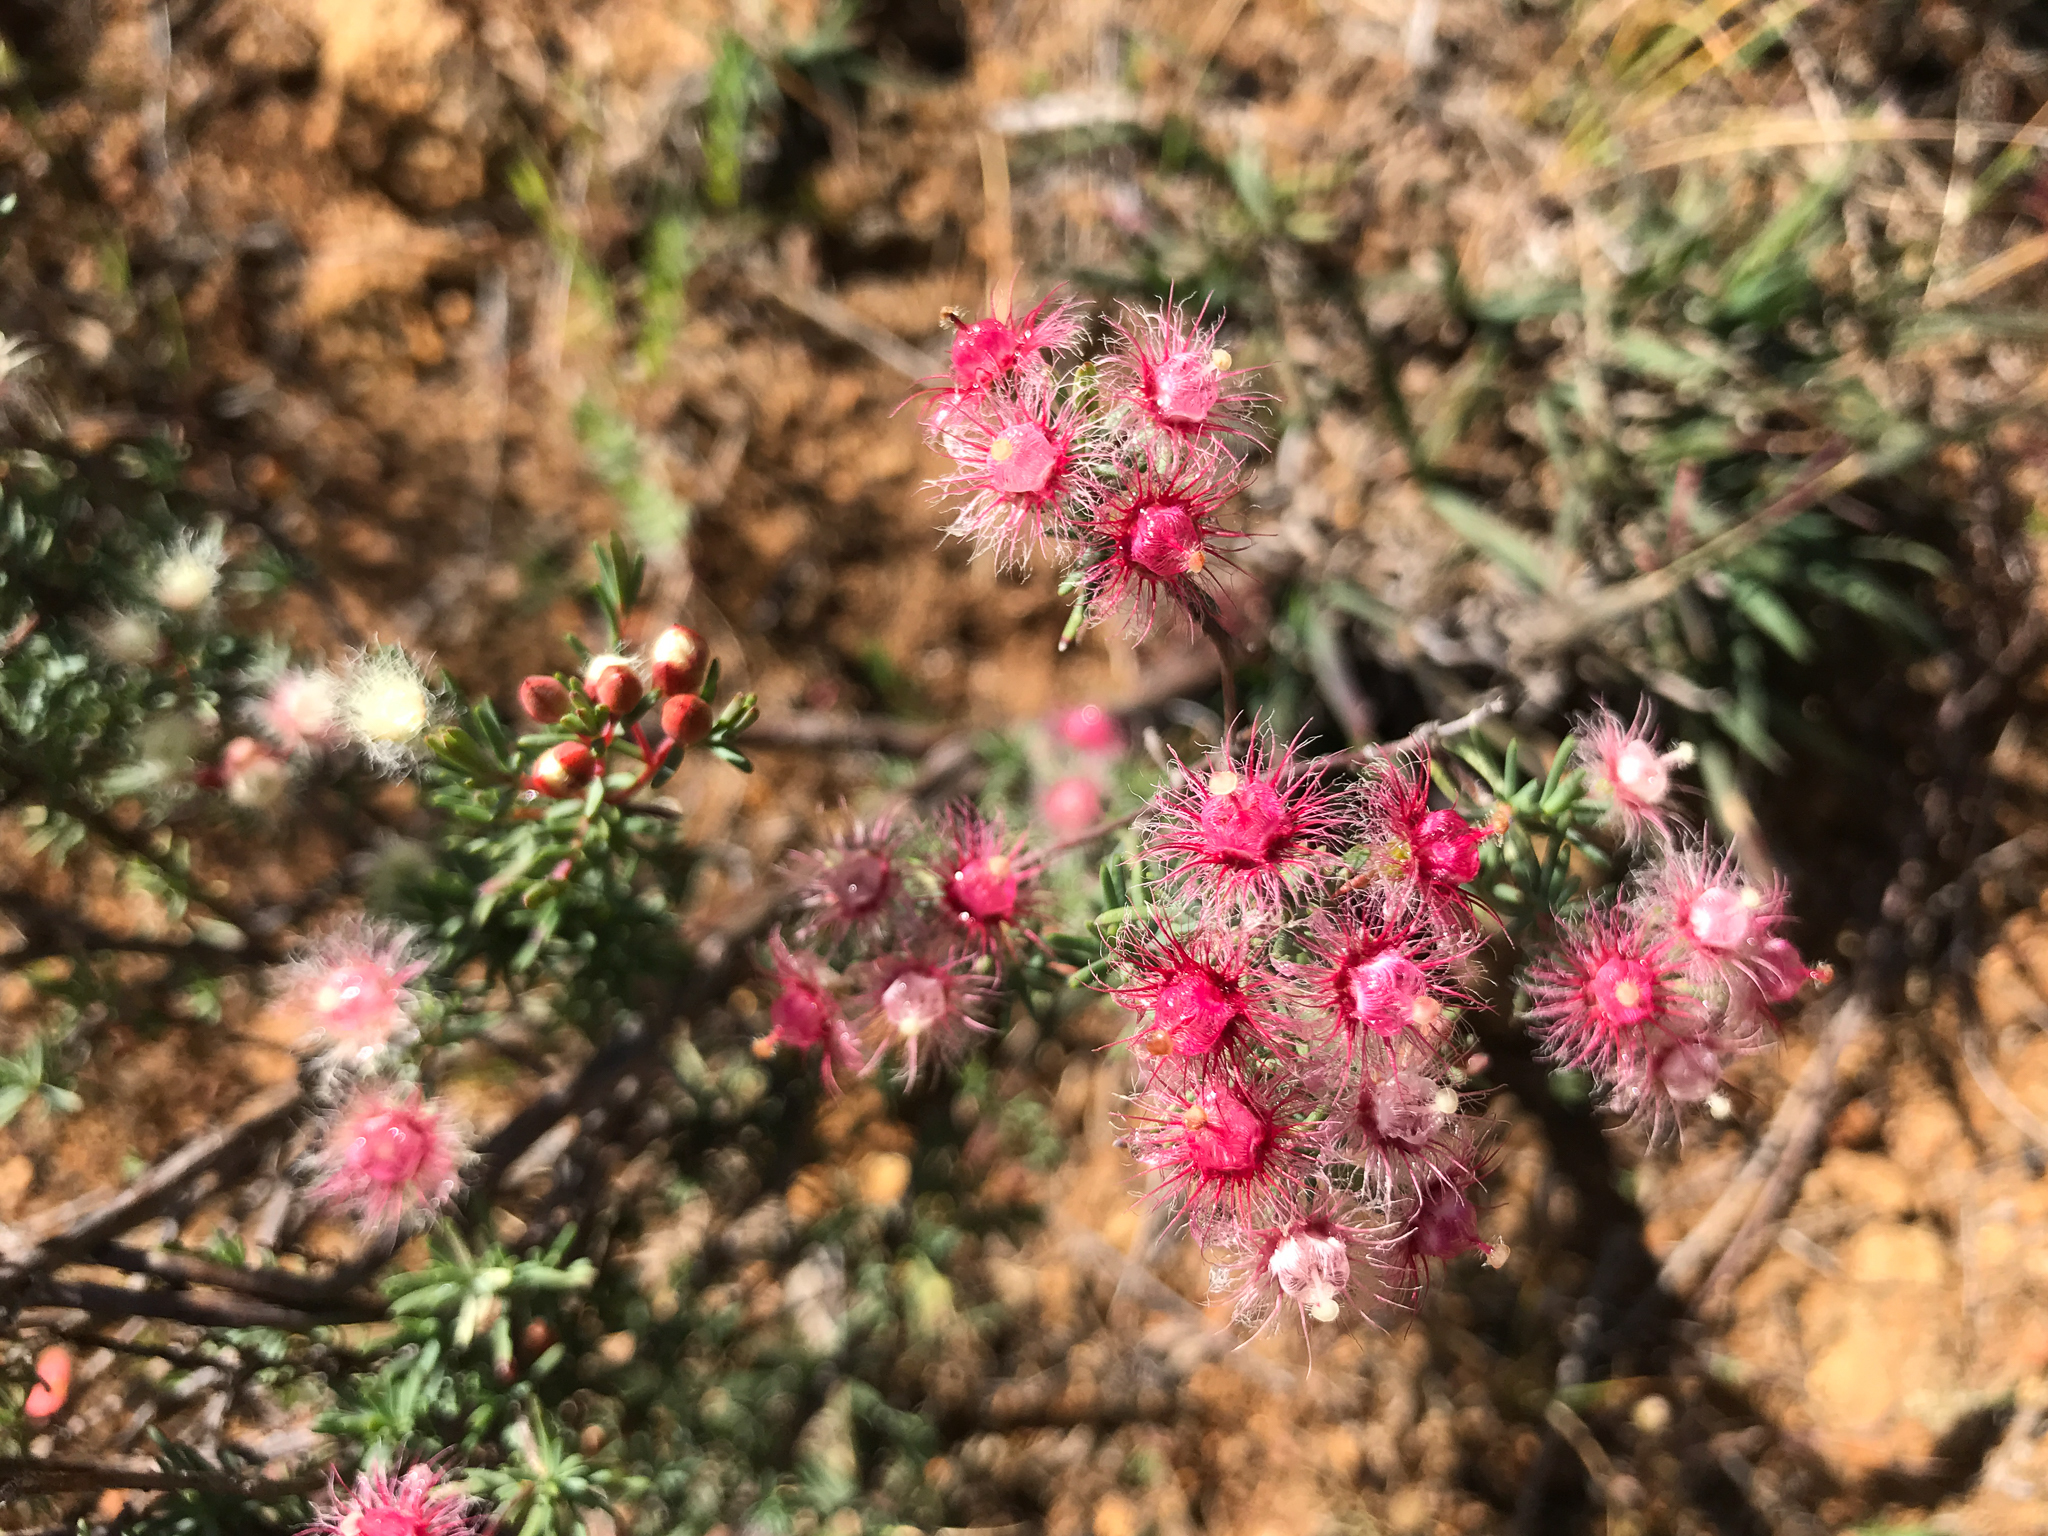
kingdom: Plantae
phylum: Tracheophyta
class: Magnoliopsida
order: Myrtales
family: Myrtaceae
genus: Verticordia
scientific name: Verticordia huegelii
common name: Variegate feather-flower
